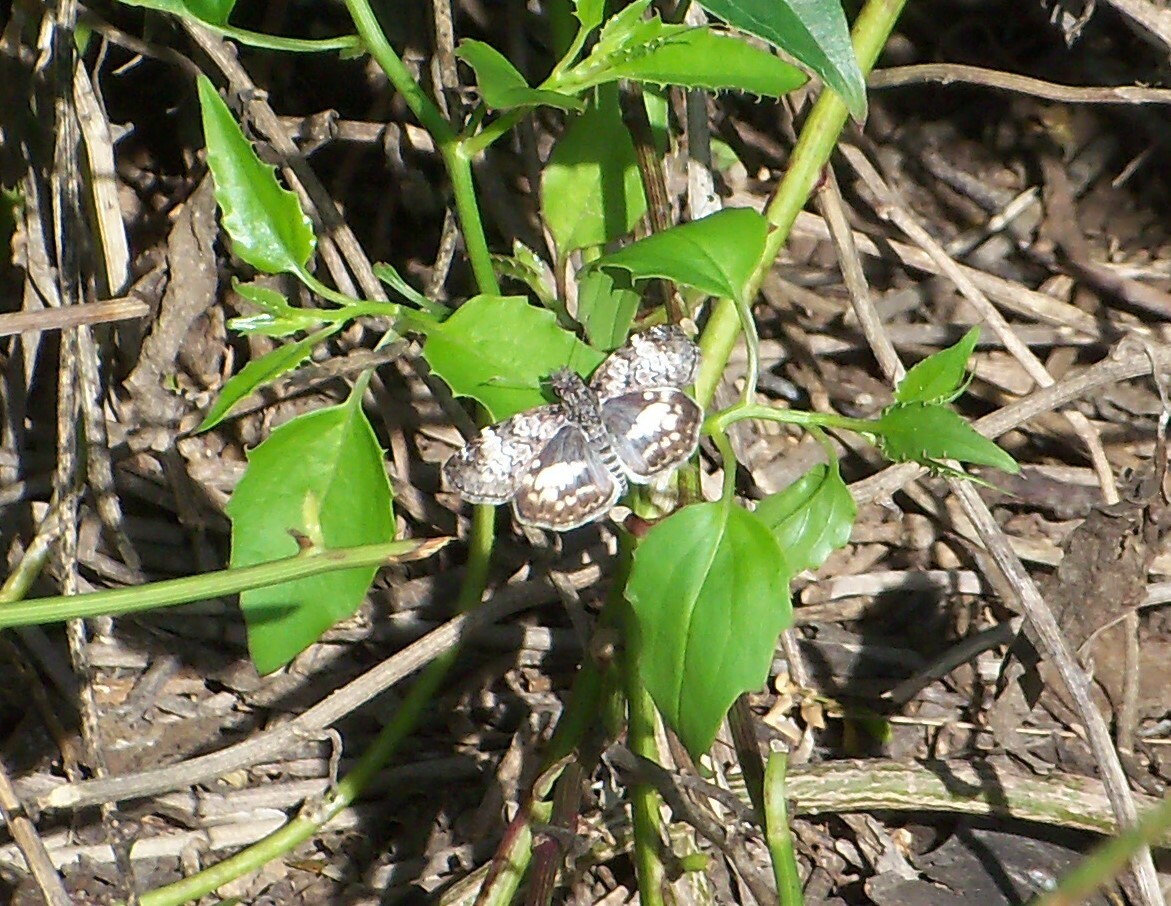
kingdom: Animalia
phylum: Arthropoda
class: Insecta
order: Lepidoptera
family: Hesperiidae
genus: Chiothion
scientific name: Chiothion georgina
